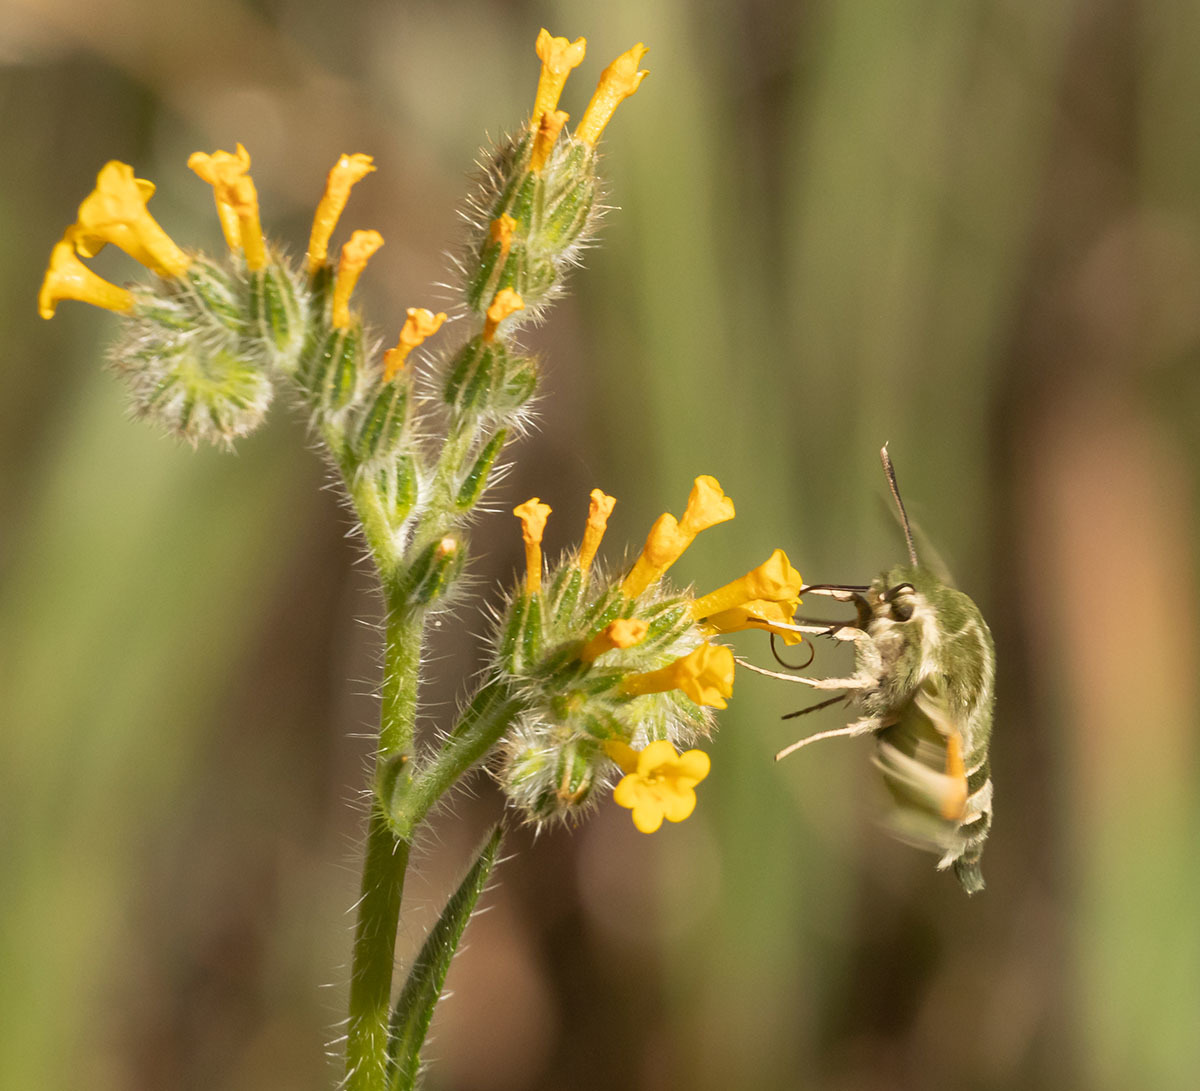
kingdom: Animalia
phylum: Arthropoda
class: Insecta
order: Lepidoptera
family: Sphingidae
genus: Proserpinus
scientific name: Proserpinus clarkiae
